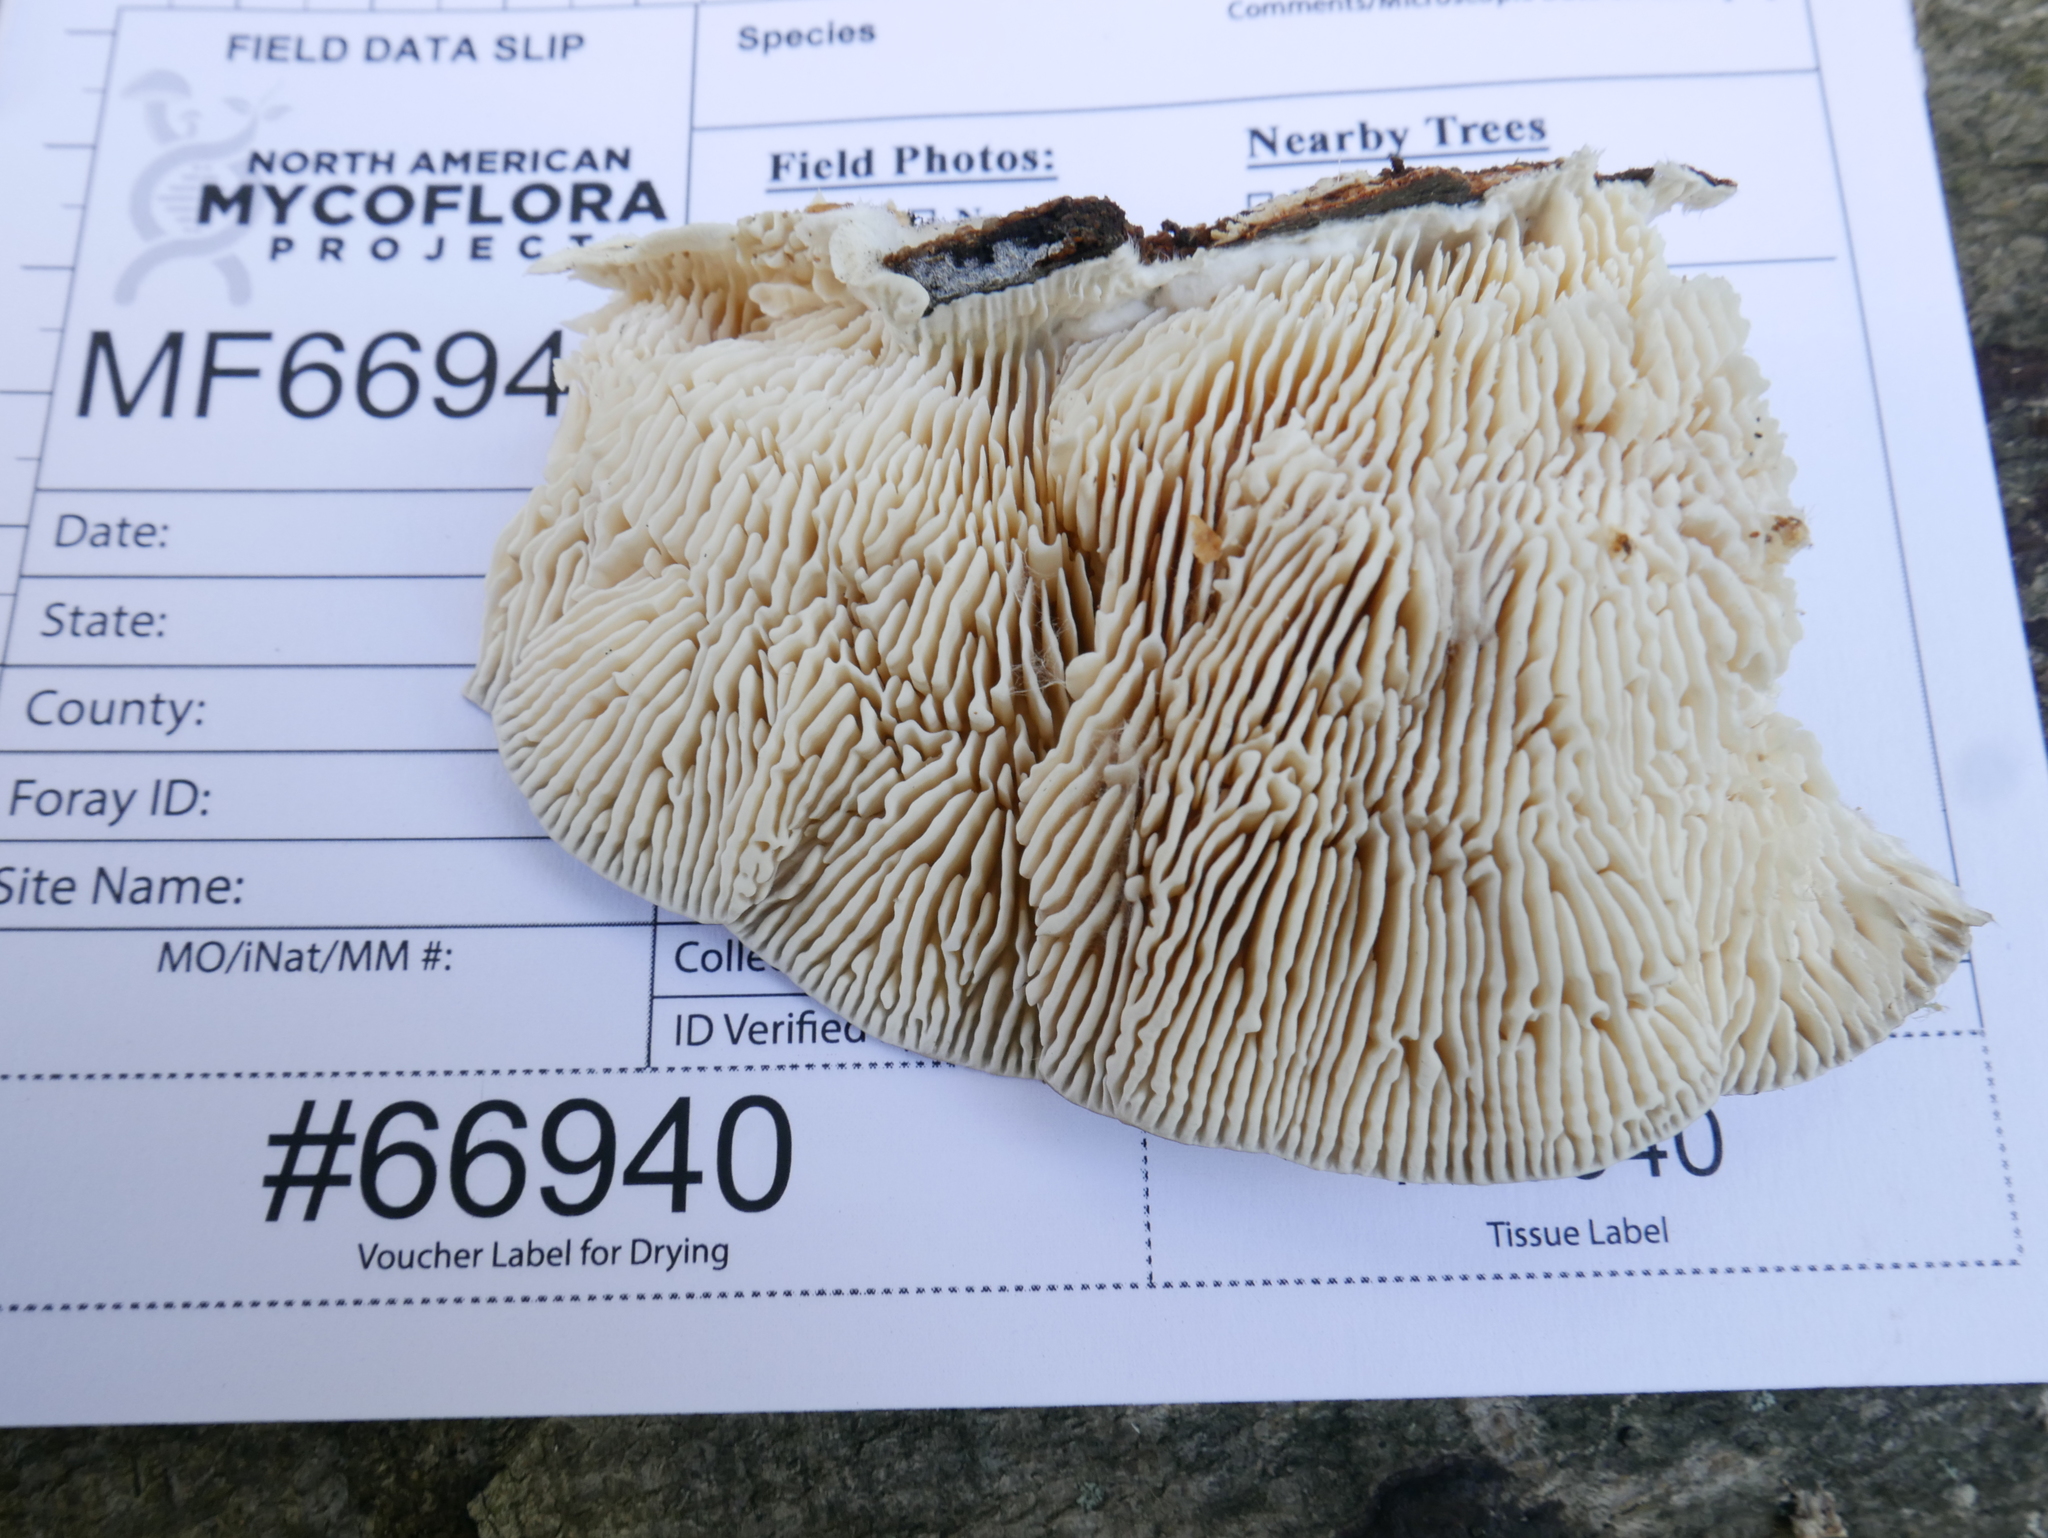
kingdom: Fungi
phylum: Basidiomycota
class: Agaricomycetes
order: Polyporales
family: Polyporaceae
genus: Lenzites
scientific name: Lenzites betulinus
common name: Birch mazegill
